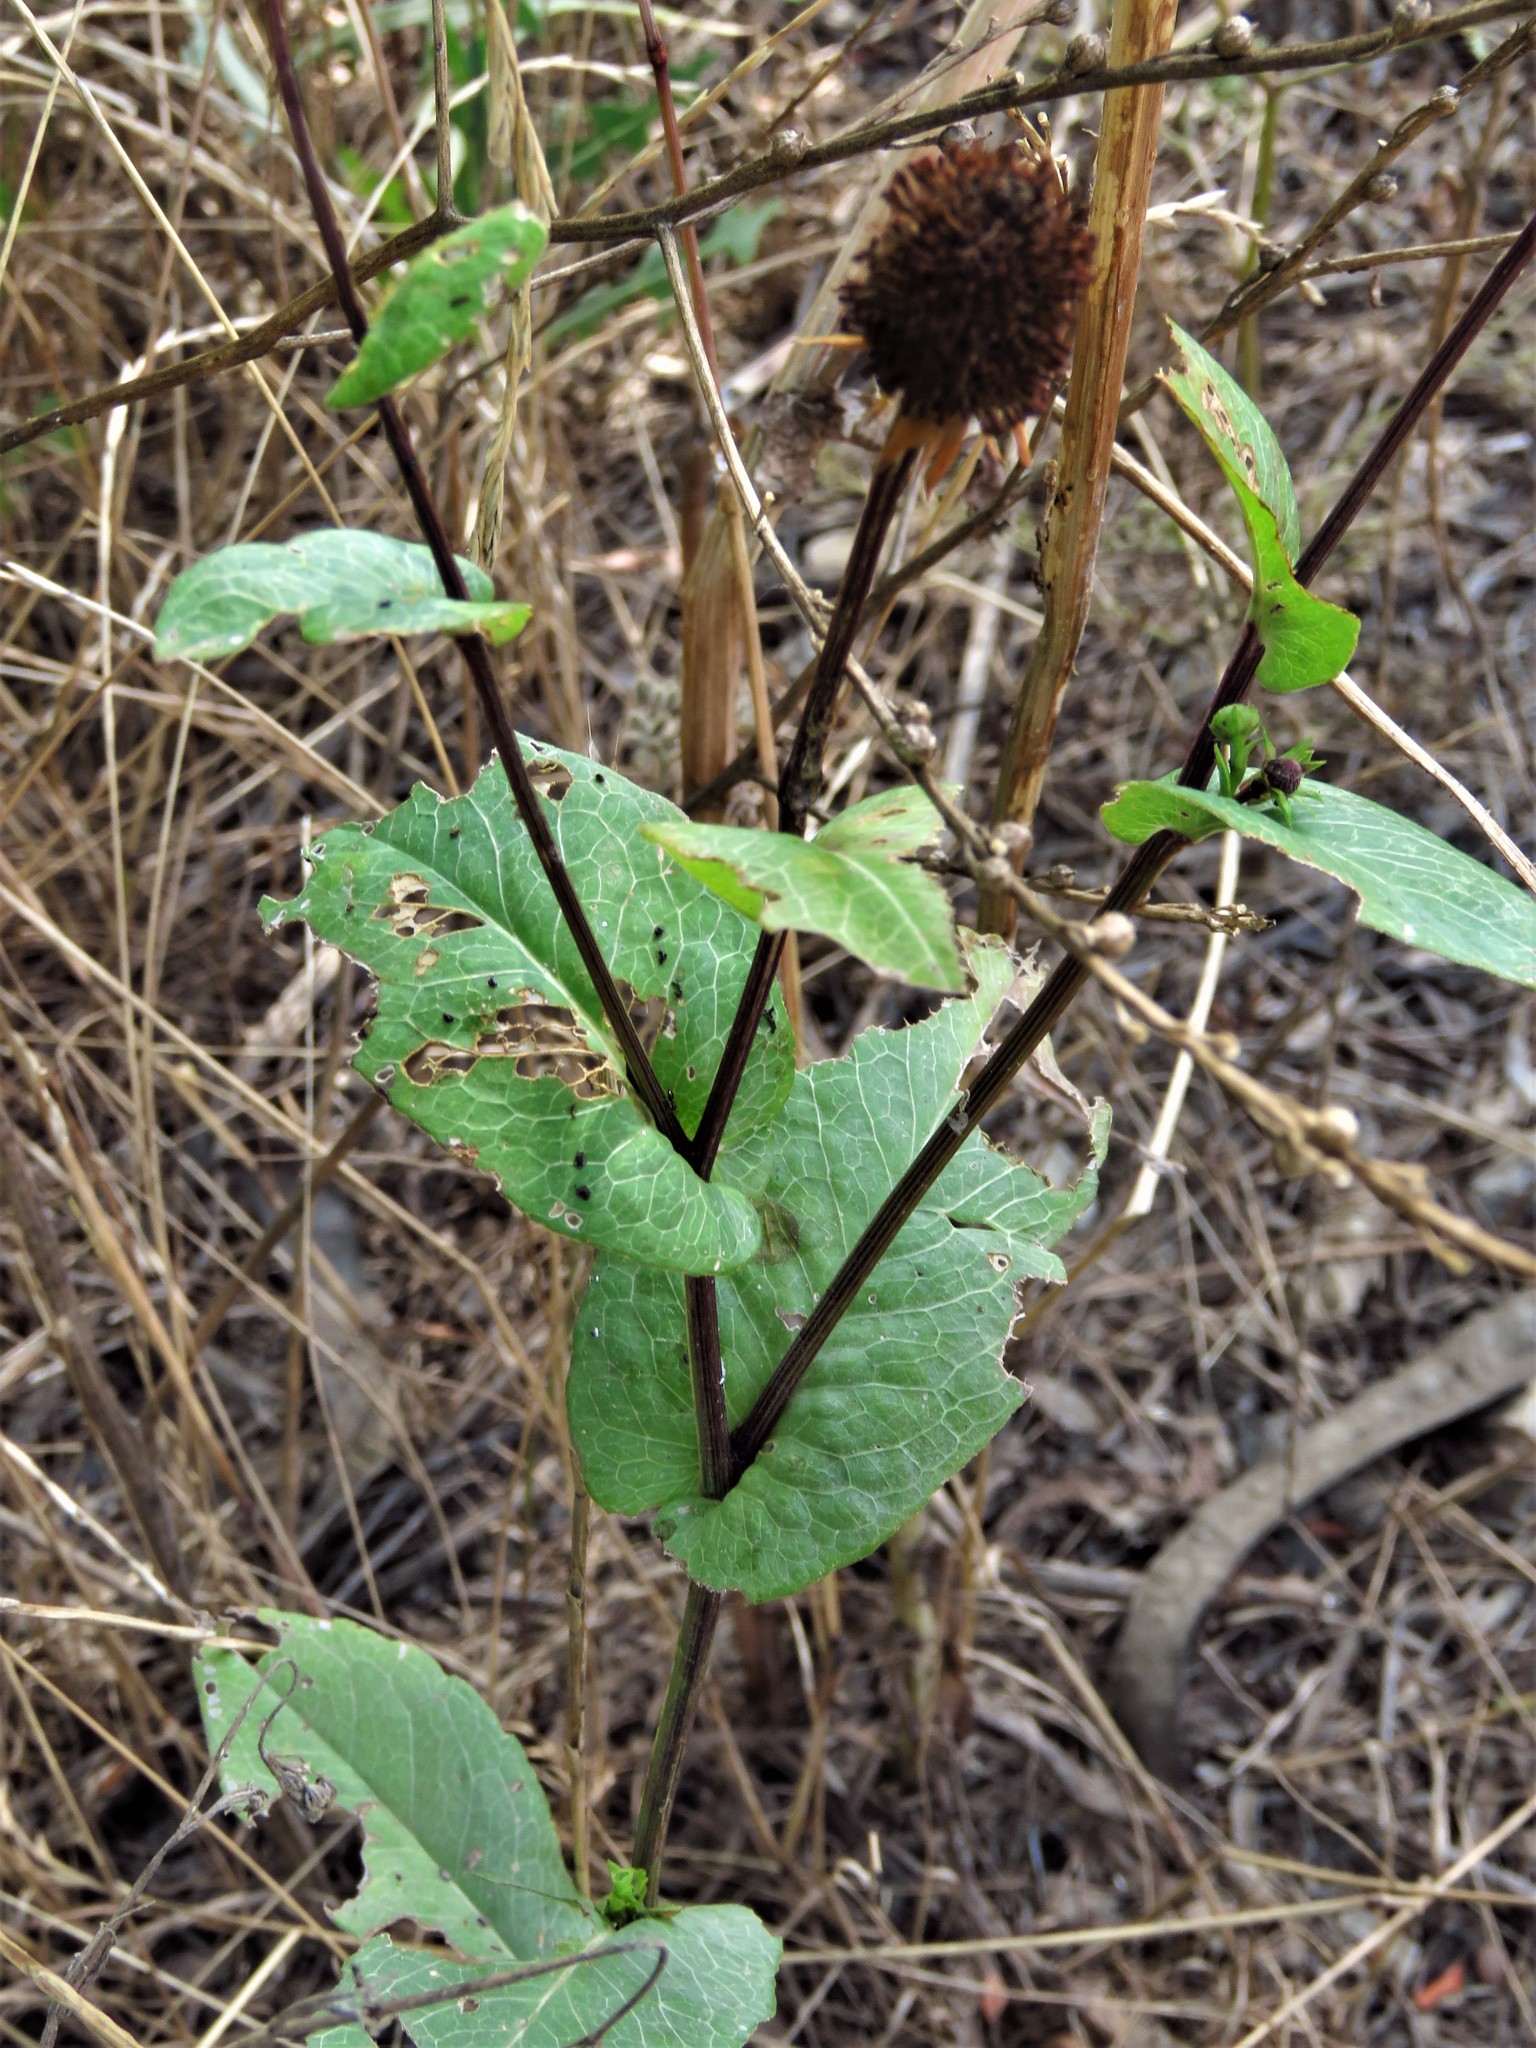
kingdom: Plantae
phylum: Tracheophyta
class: Magnoliopsida
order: Asterales
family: Asteraceae
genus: Rudbeckia
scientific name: Rudbeckia amplexicaulis
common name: Clasping-leaf coneflower
